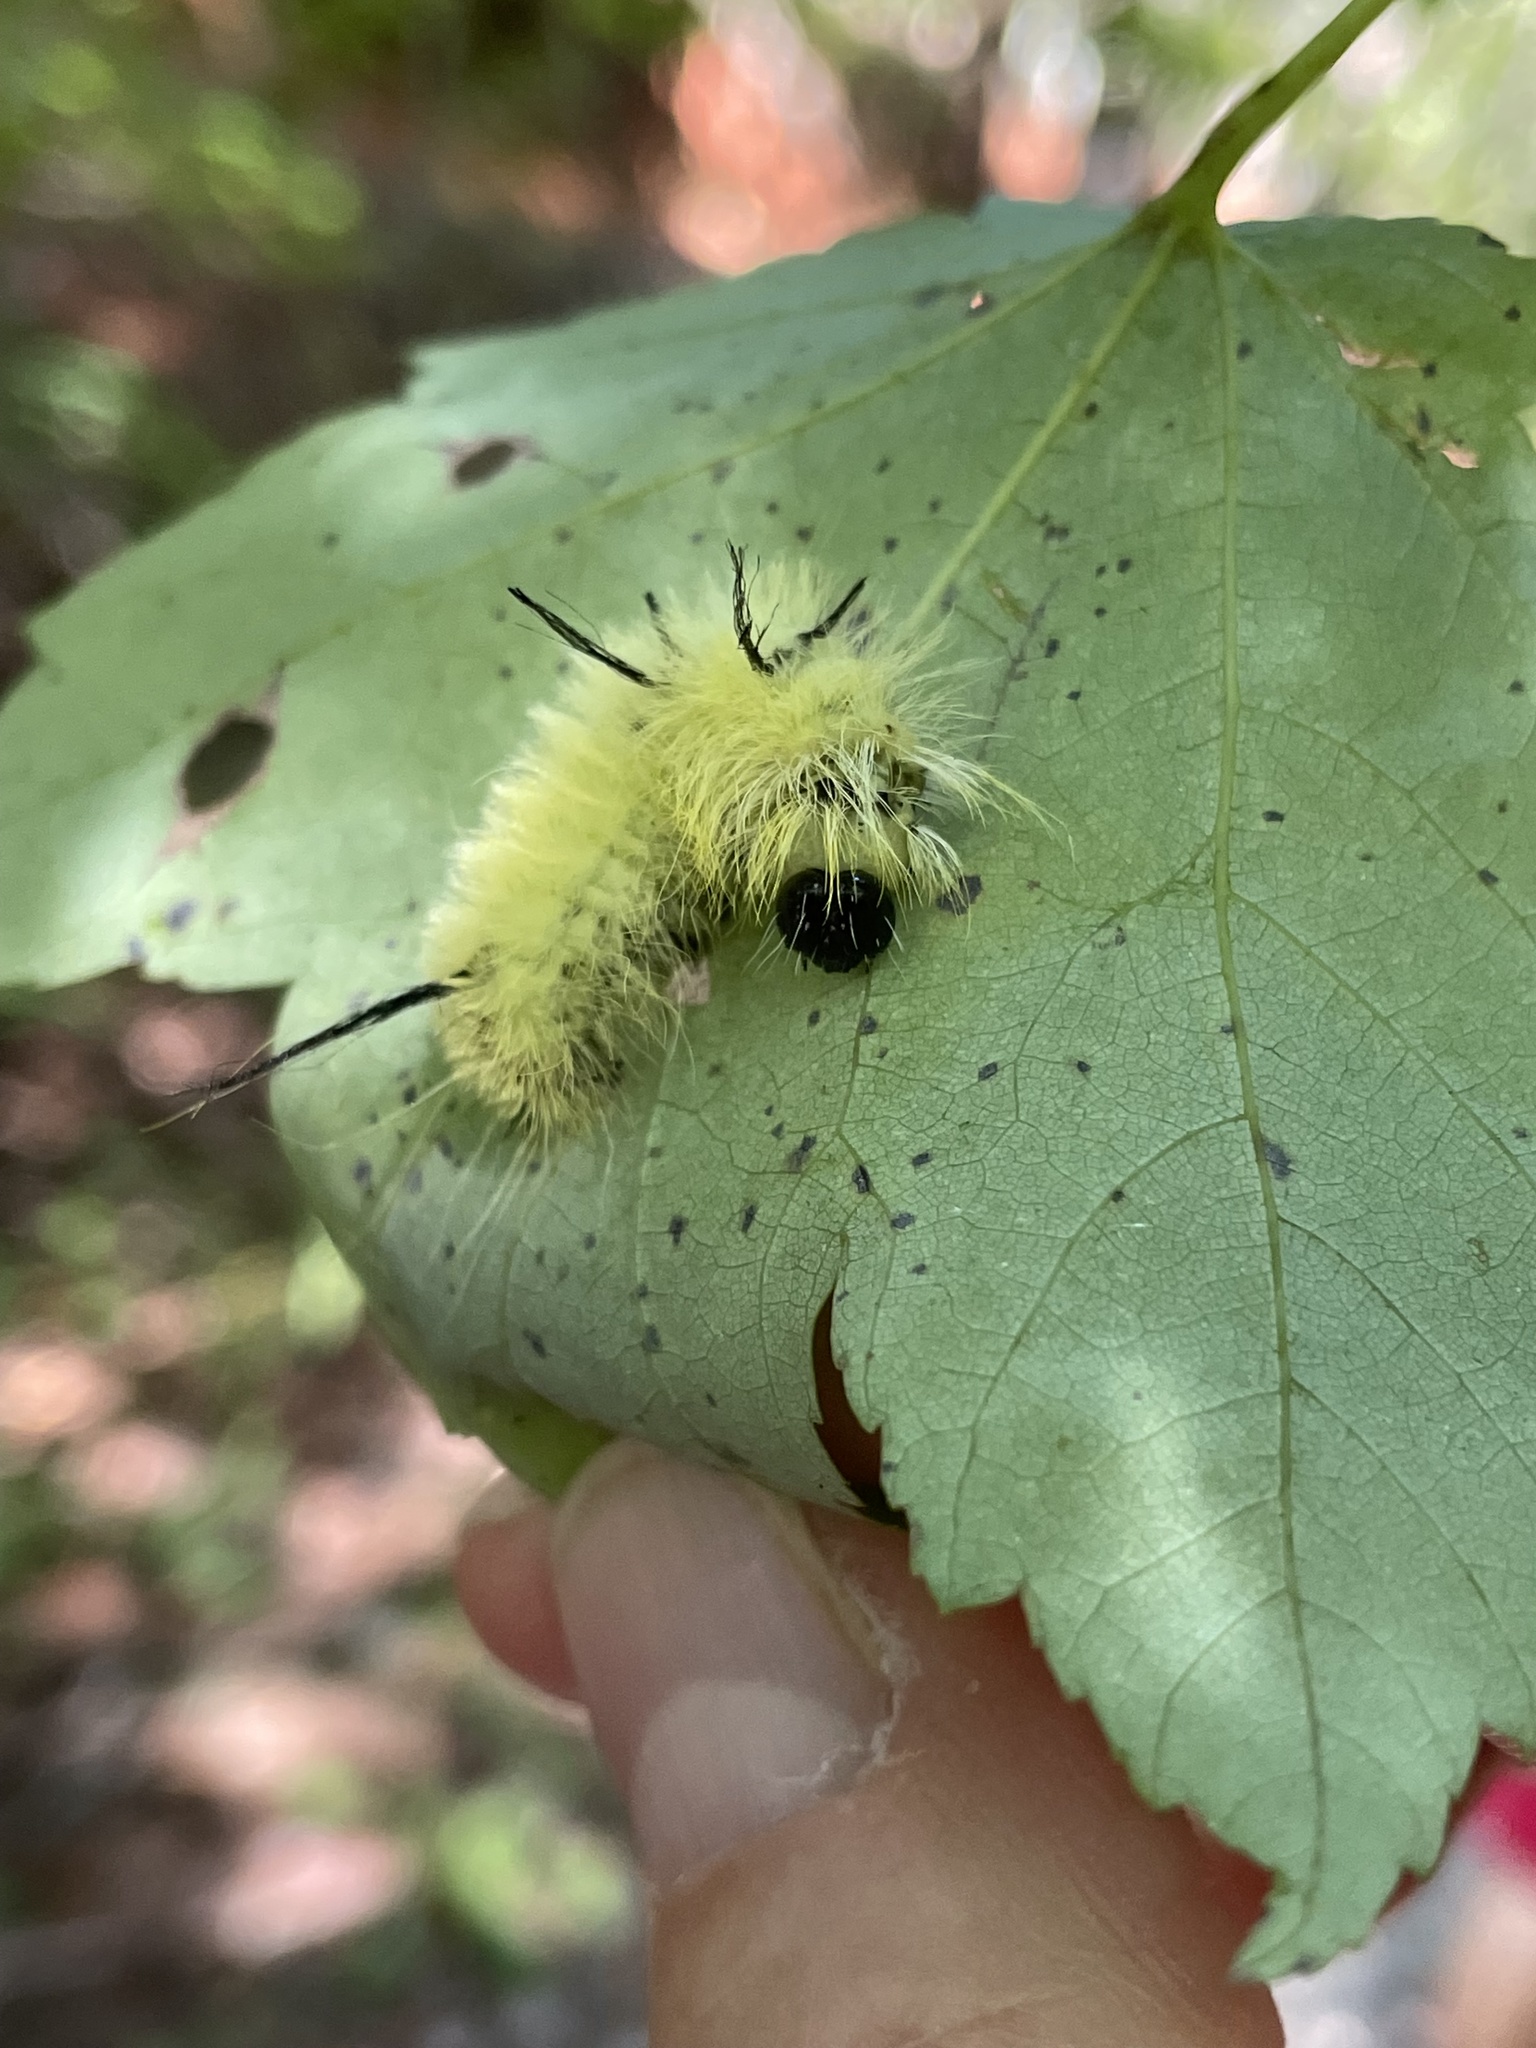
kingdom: Animalia
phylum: Arthropoda
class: Insecta
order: Lepidoptera
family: Noctuidae
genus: Acronicta
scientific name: Acronicta americana
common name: American dagger
